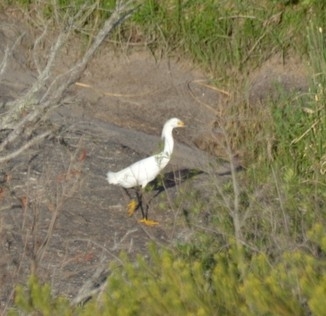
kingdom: Animalia
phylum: Chordata
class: Aves
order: Pelecaniformes
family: Ardeidae
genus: Egretta
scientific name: Egretta thula
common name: Snowy egret
